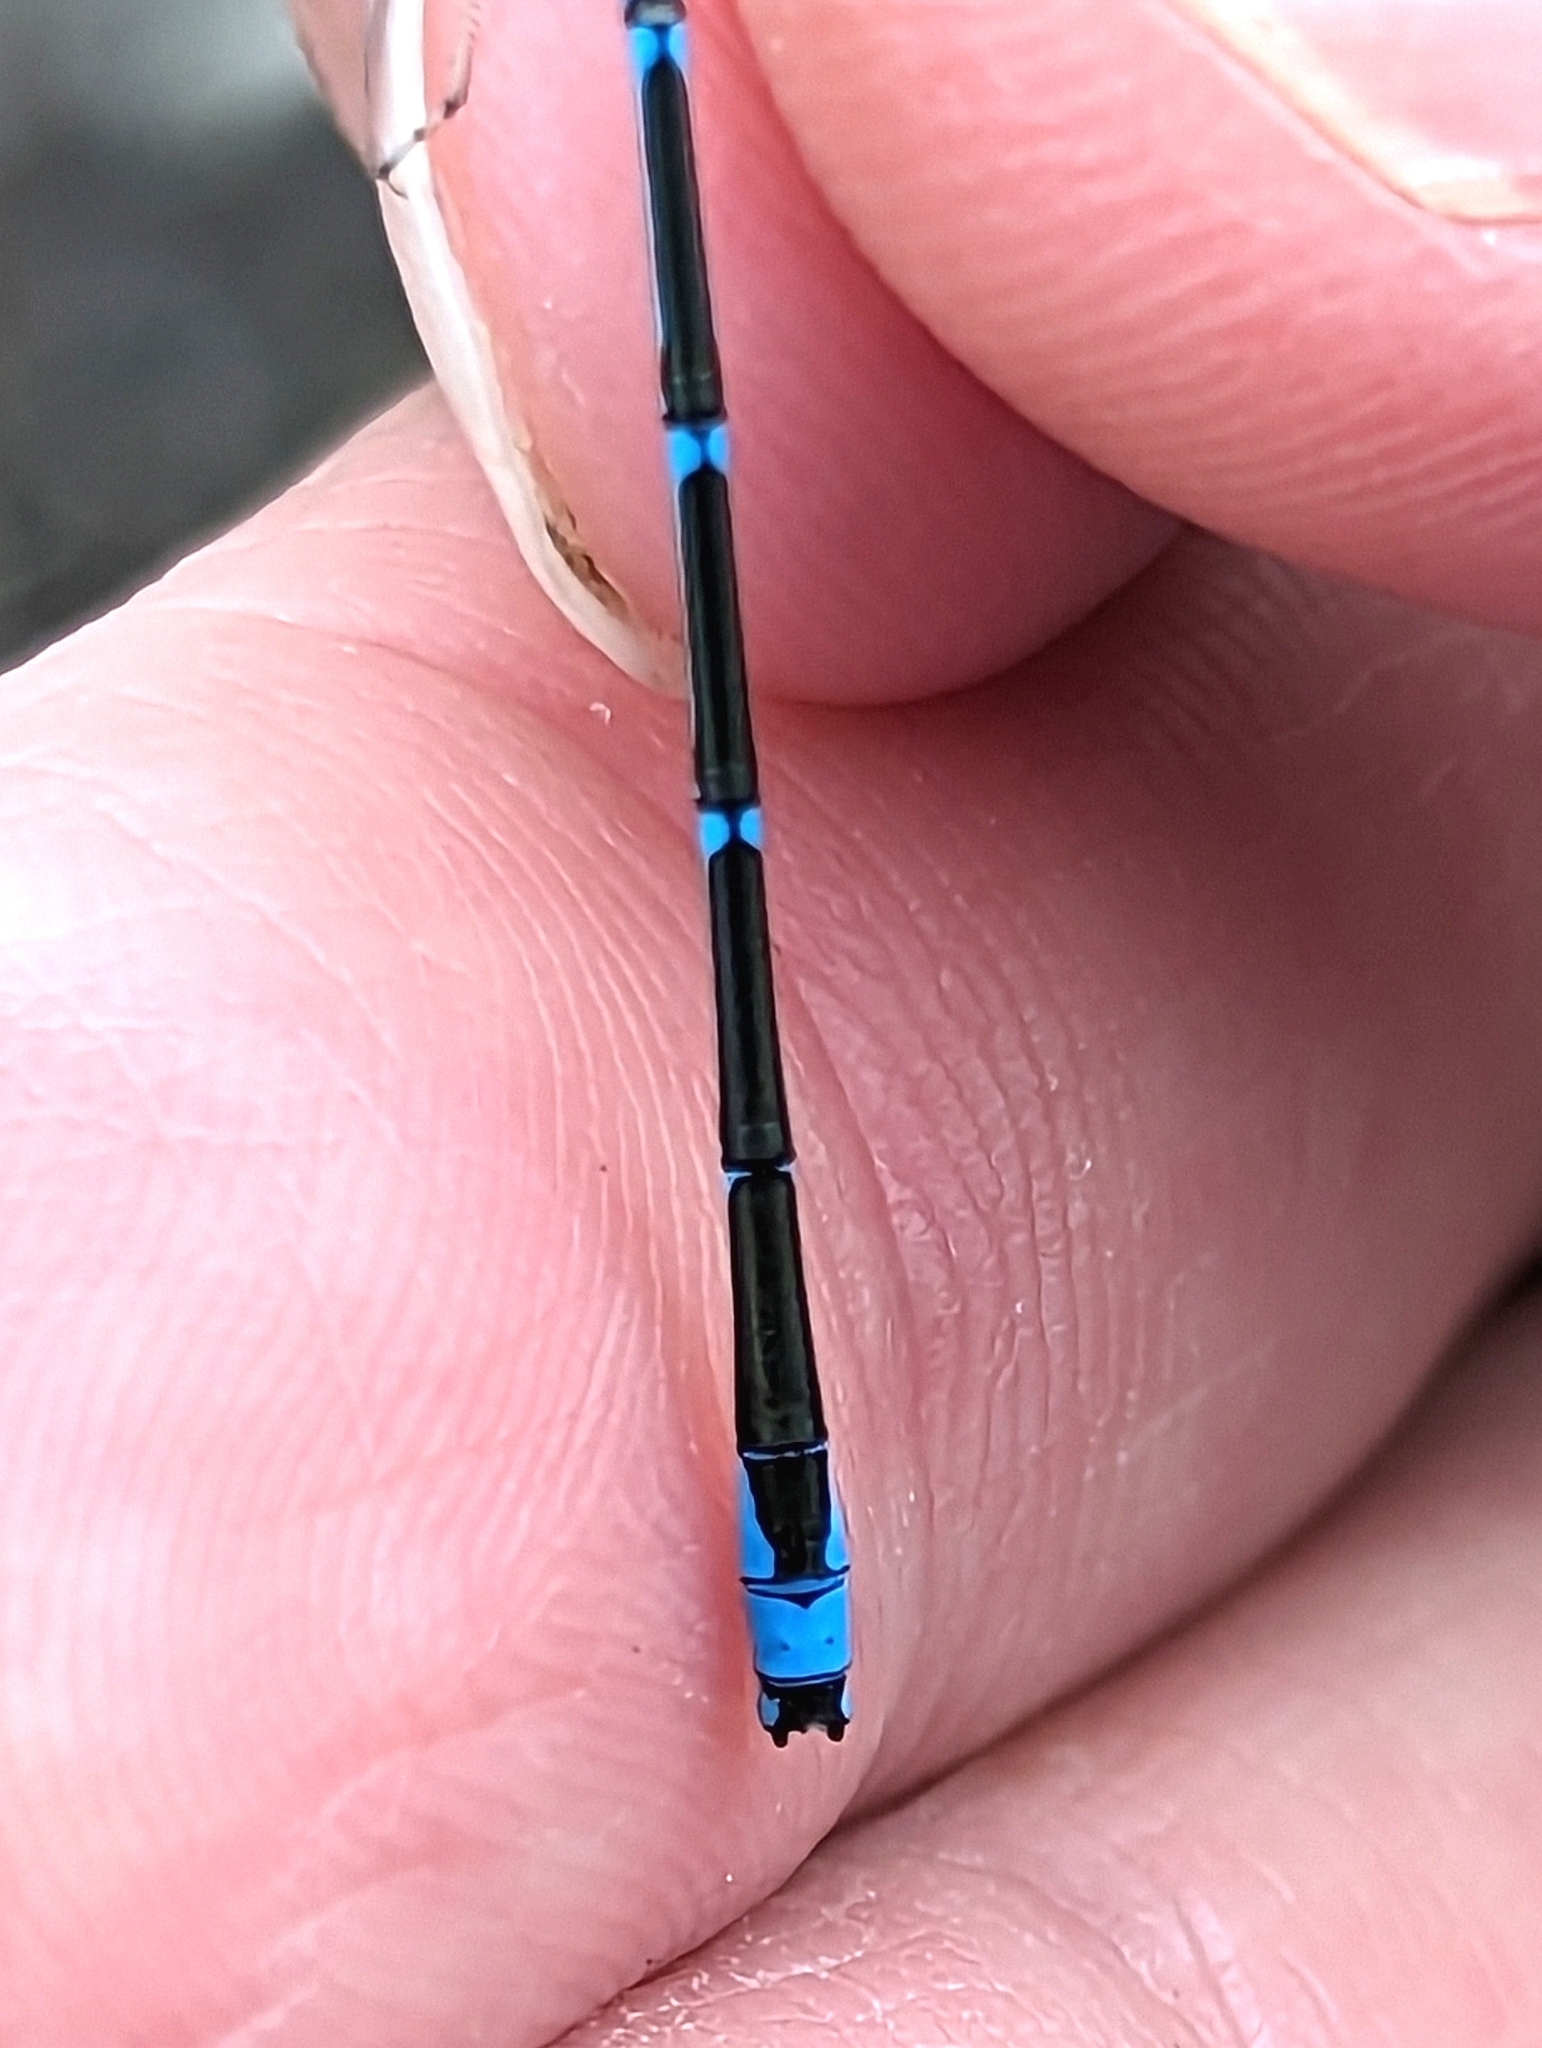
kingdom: Animalia
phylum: Arthropoda
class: Insecta
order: Odonata
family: Coenagrionidae
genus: Enallagma
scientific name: Enallagma exsulans
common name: Stream bluet
